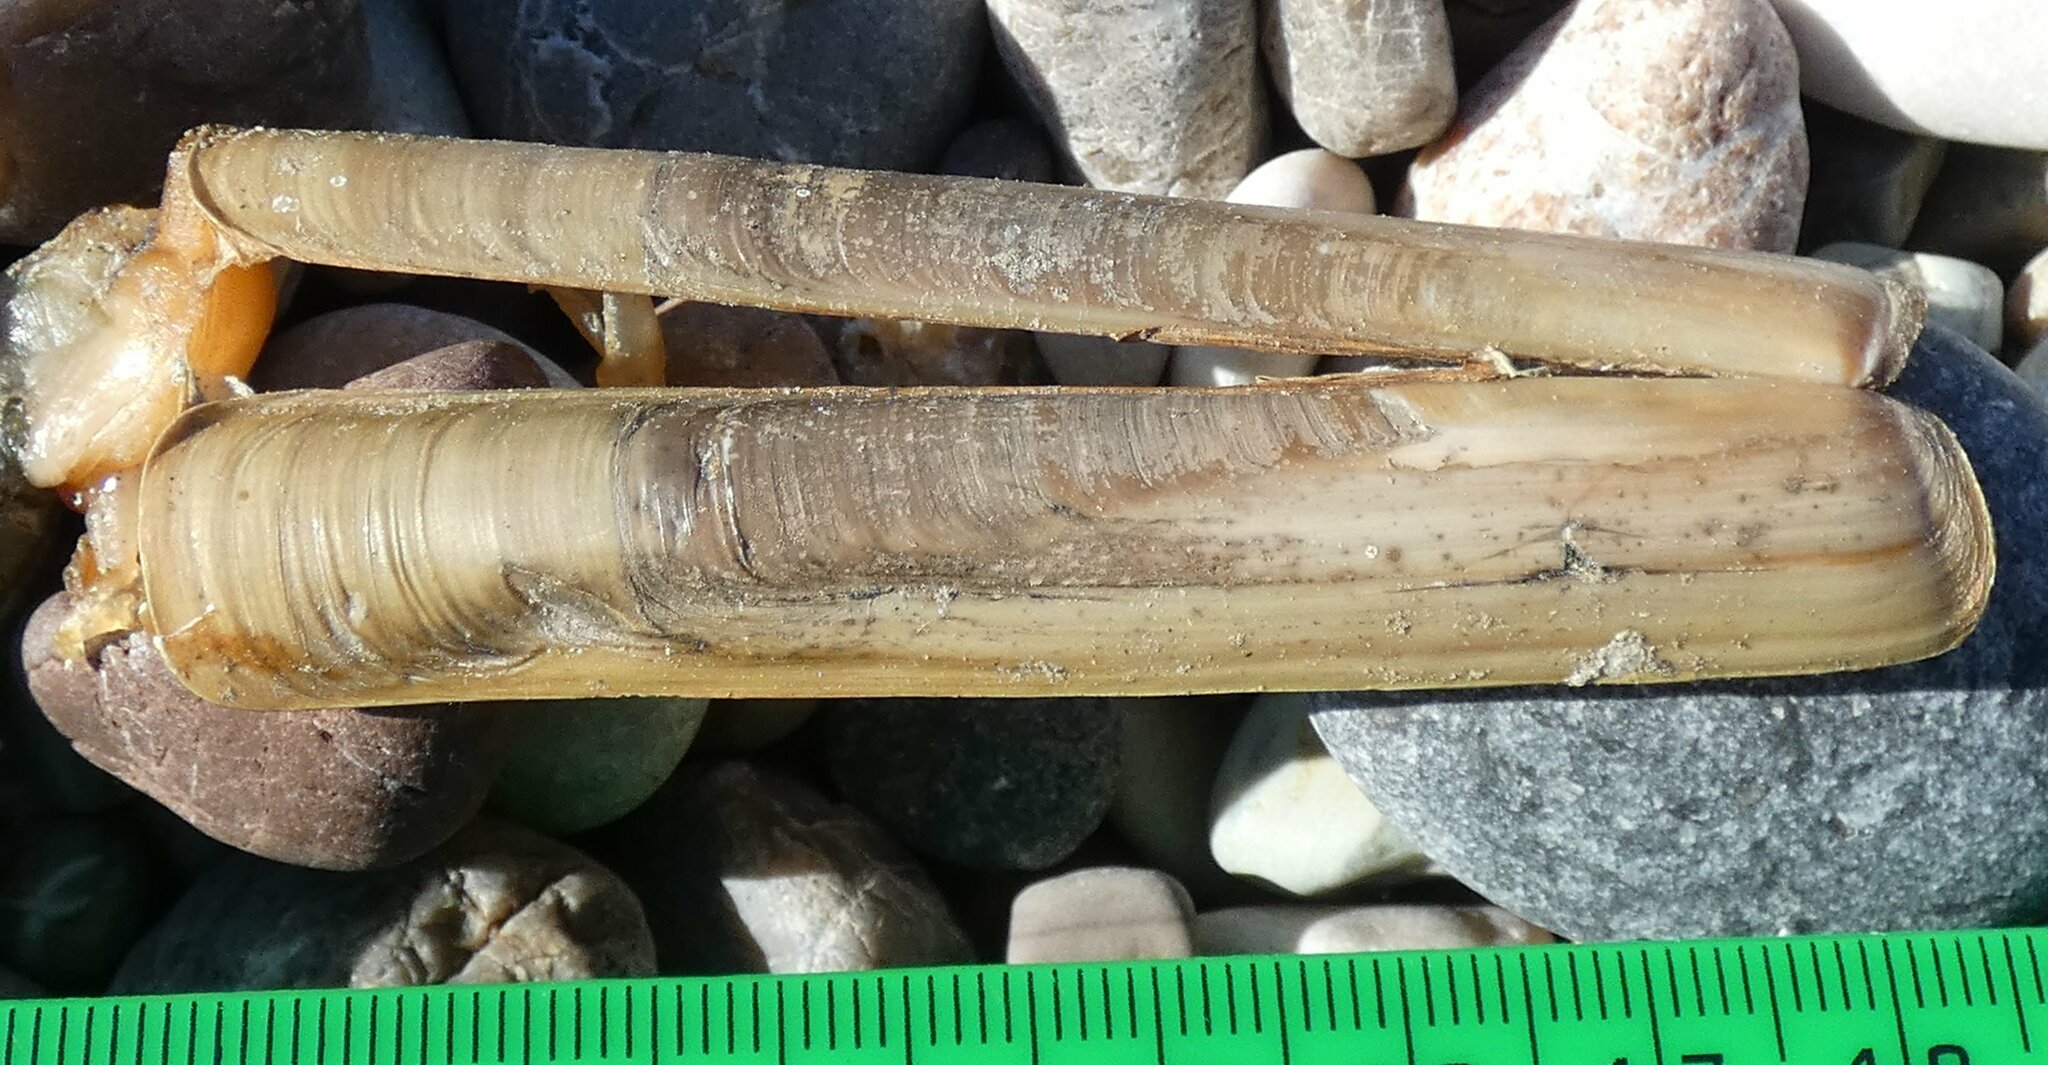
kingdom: Animalia
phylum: Mollusca
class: Bivalvia
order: Adapedonta
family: Solenidae
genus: Solen
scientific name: Solen marginatus
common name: Grooved razor shell
